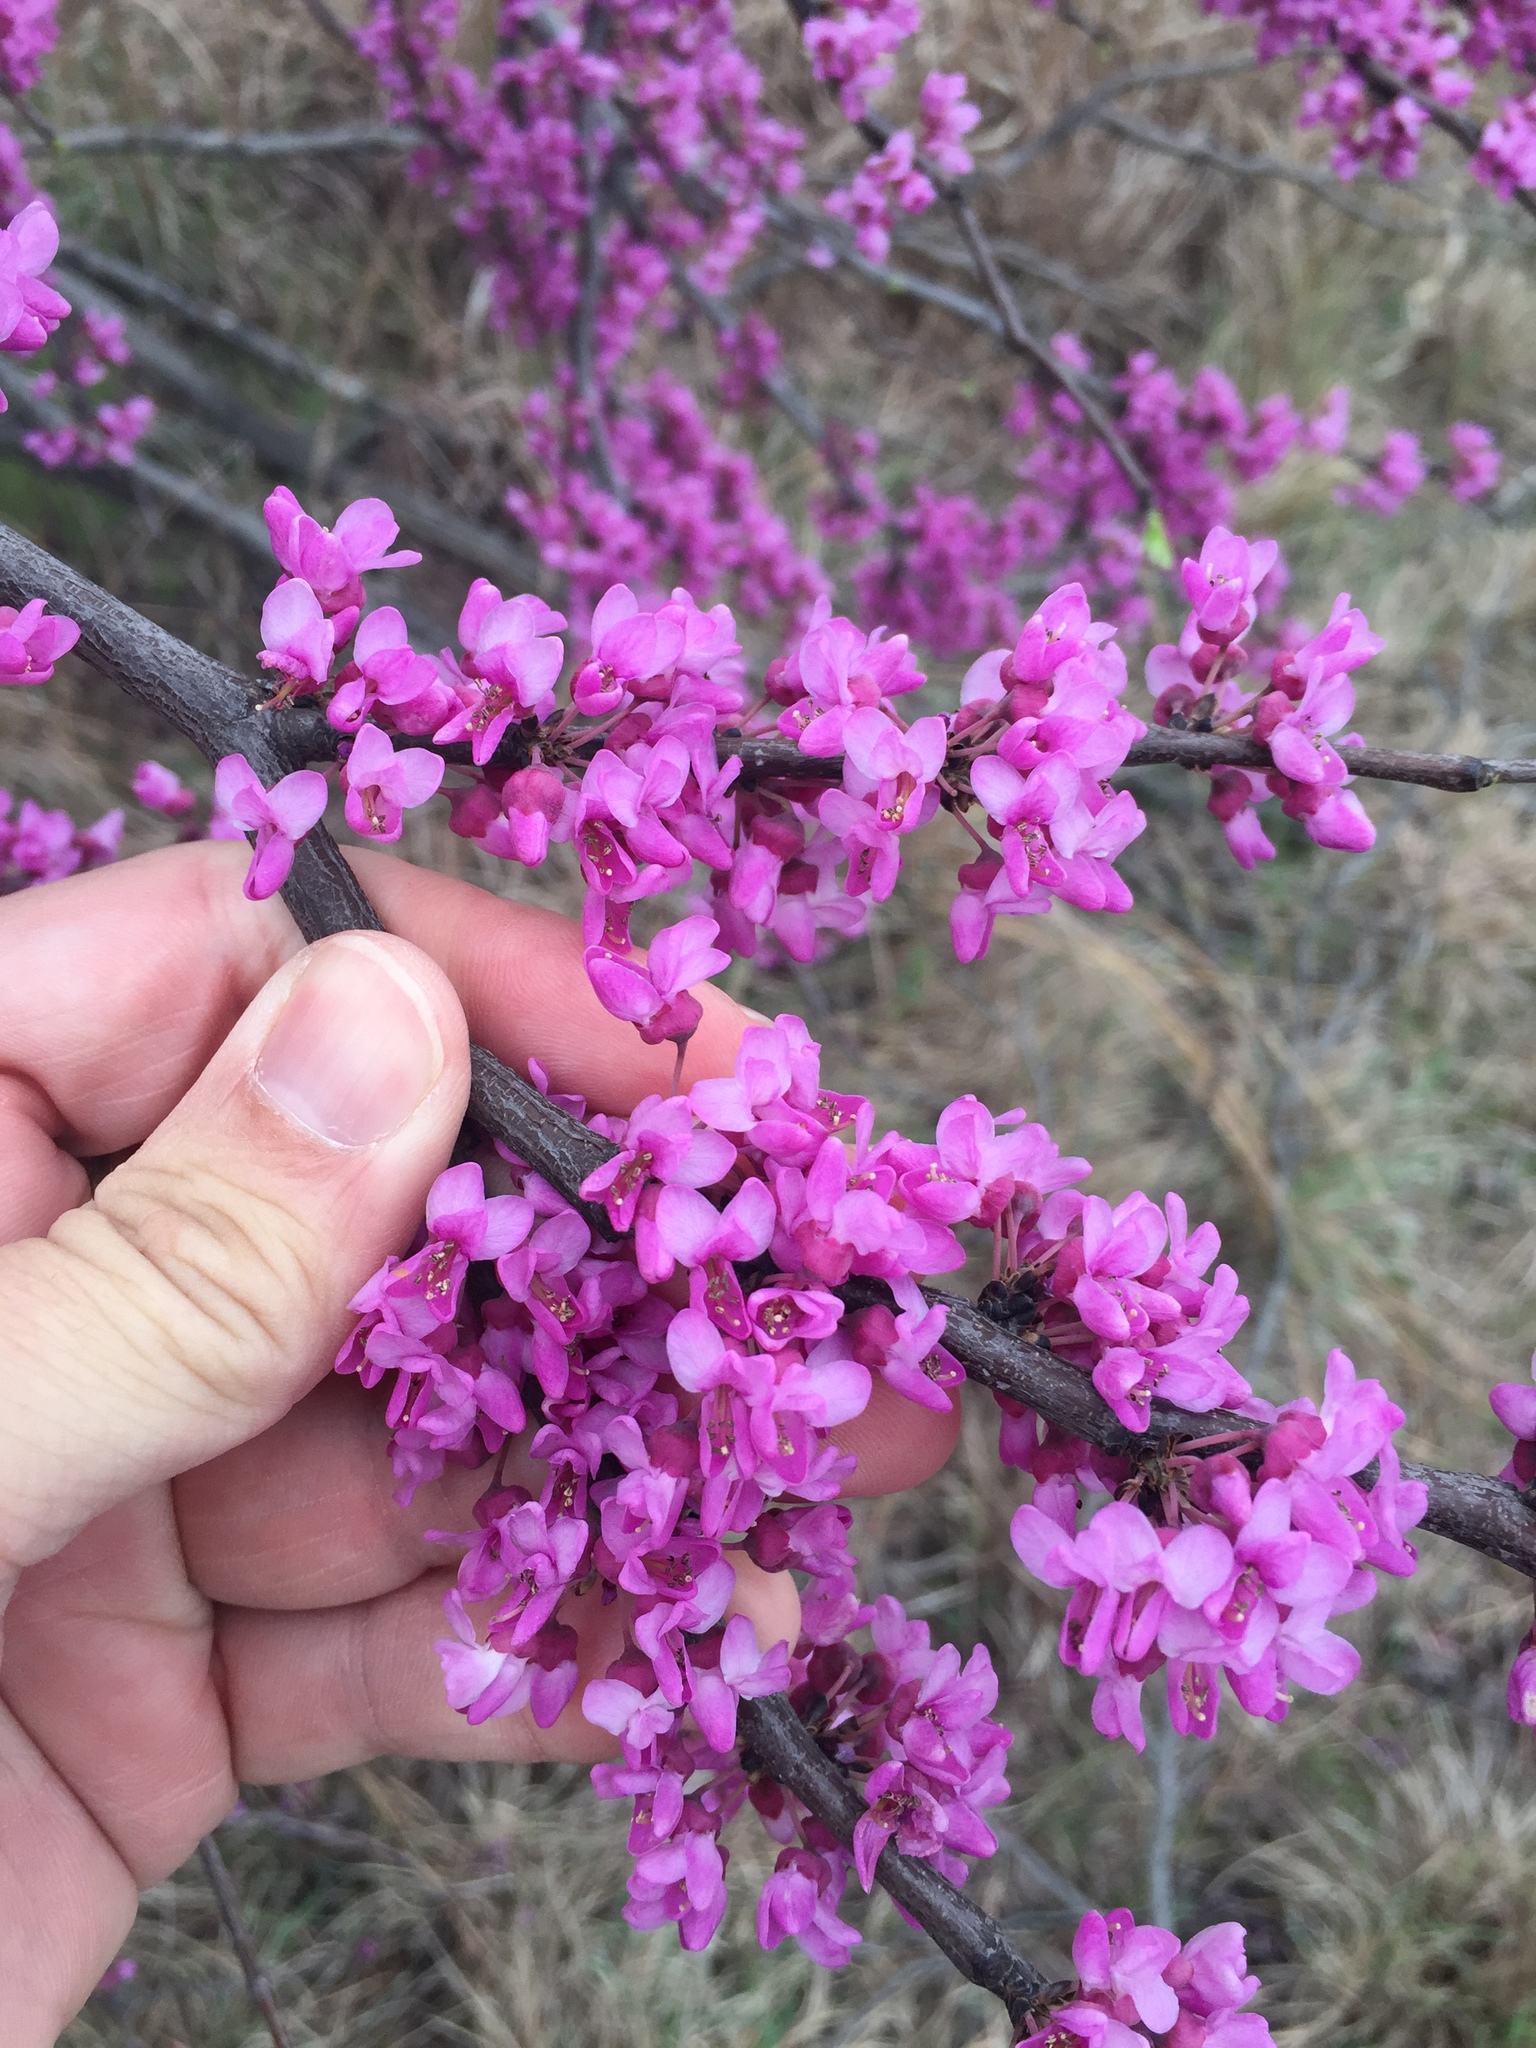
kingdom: Plantae
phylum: Tracheophyta
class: Magnoliopsida
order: Fabales
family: Fabaceae
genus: Cercis
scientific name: Cercis canadensis
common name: Eastern redbud
